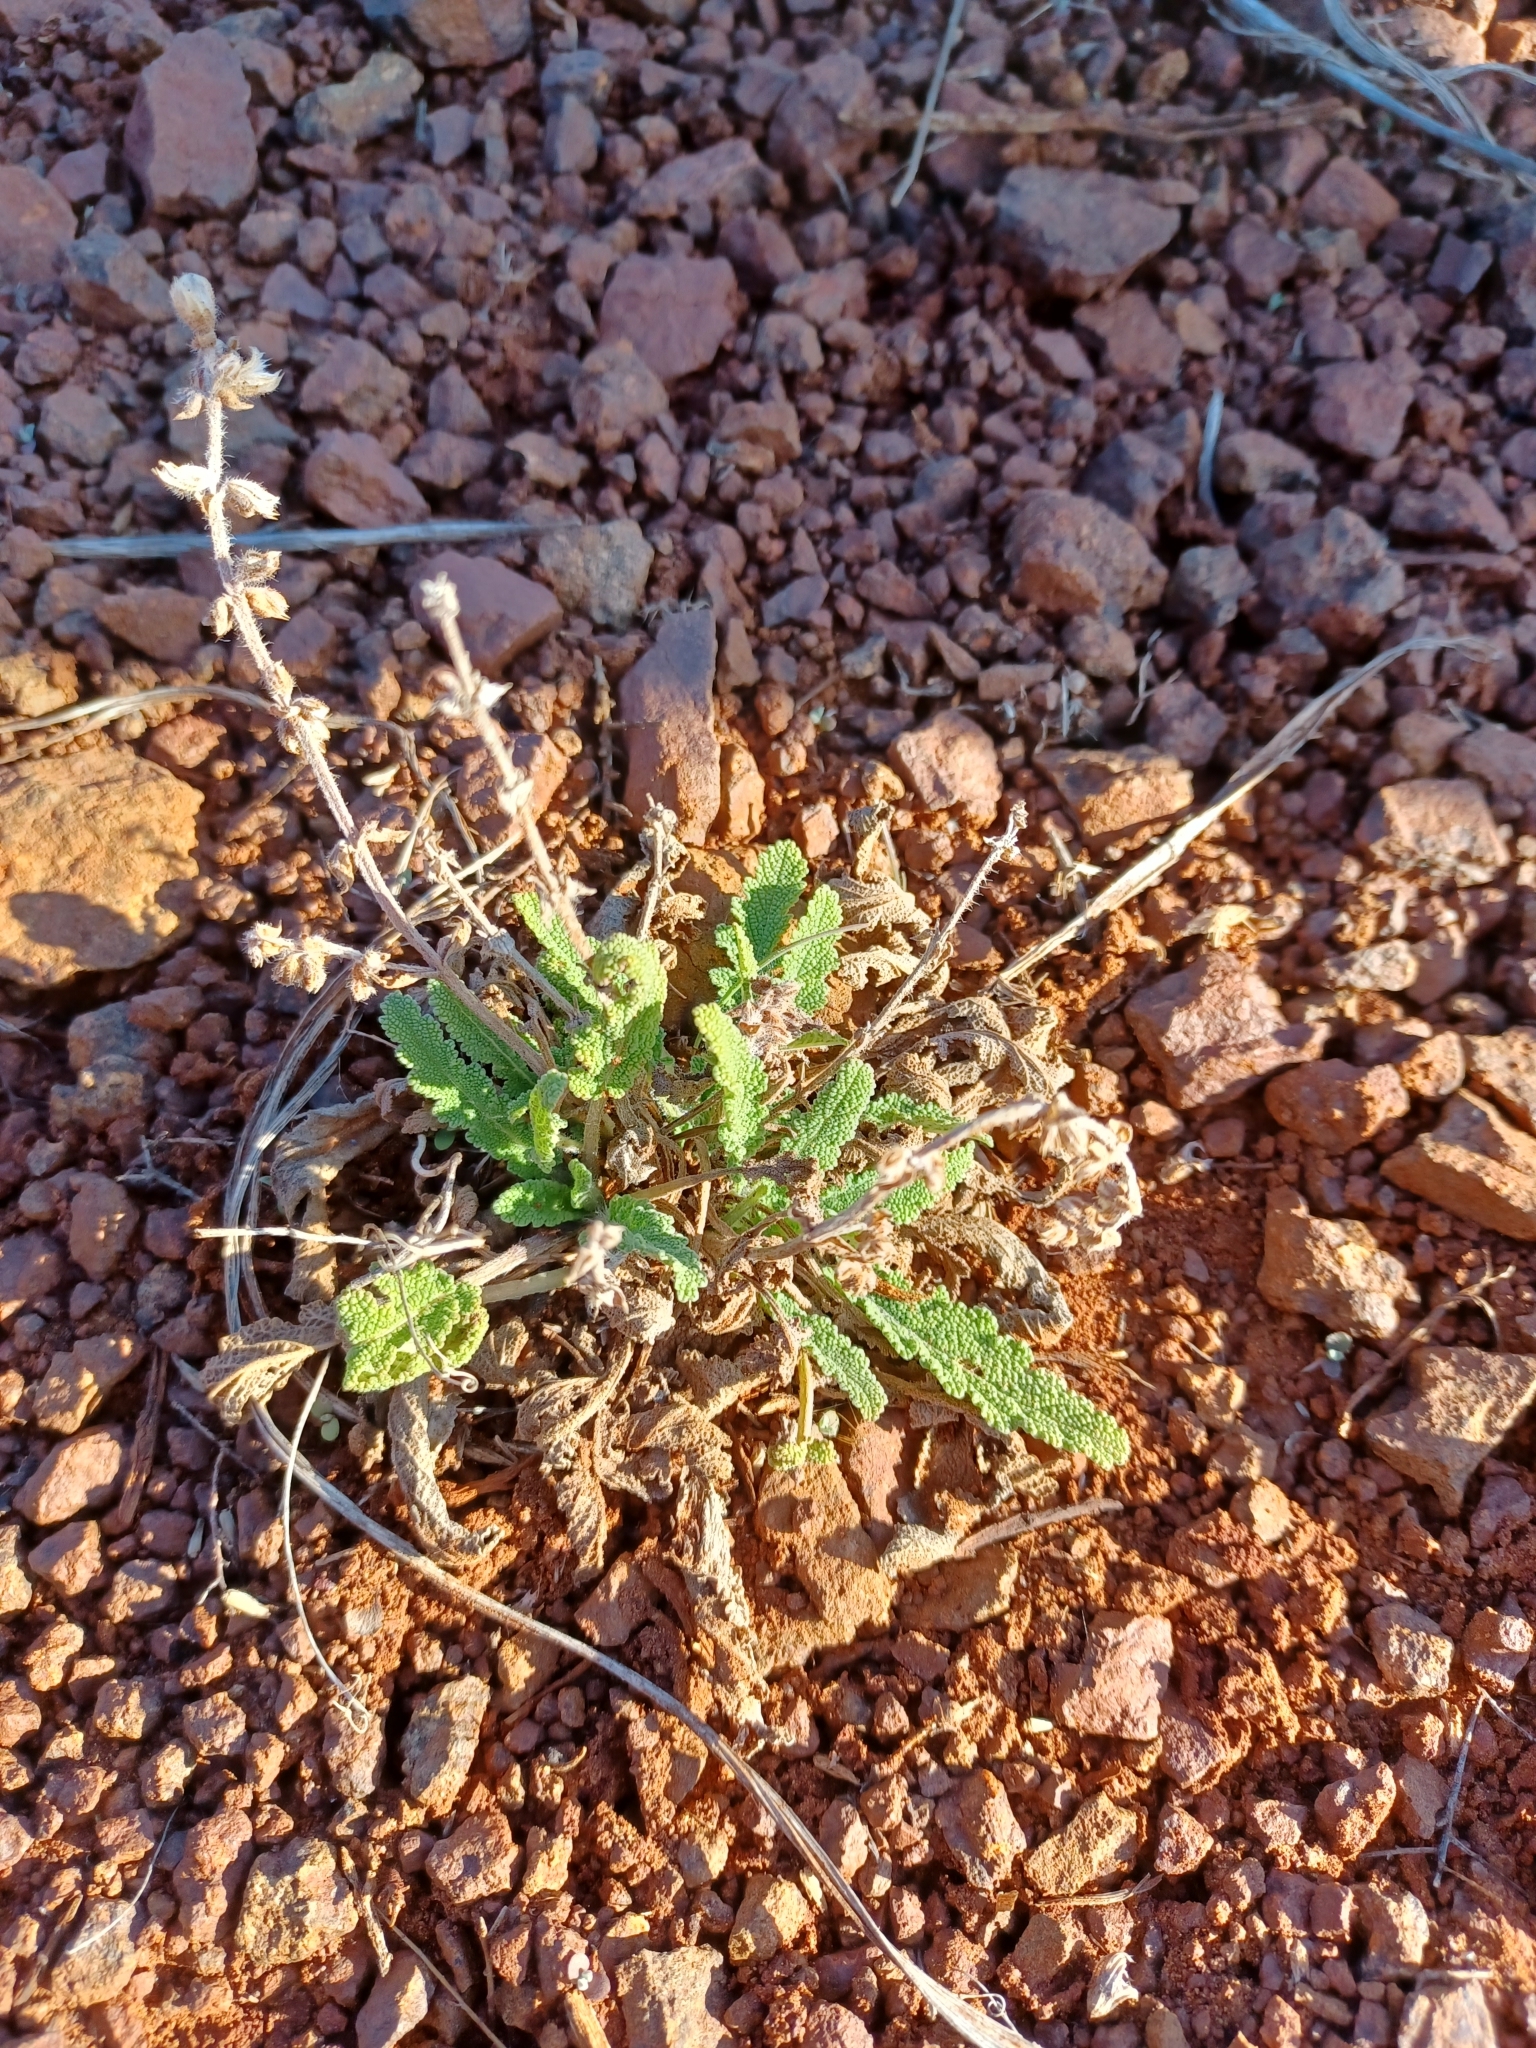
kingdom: Plantae
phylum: Tracheophyta
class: Magnoliopsida
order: Lamiales
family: Lamiaceae
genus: Salvia
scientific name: Salvia verbenaca
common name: Wild clary
